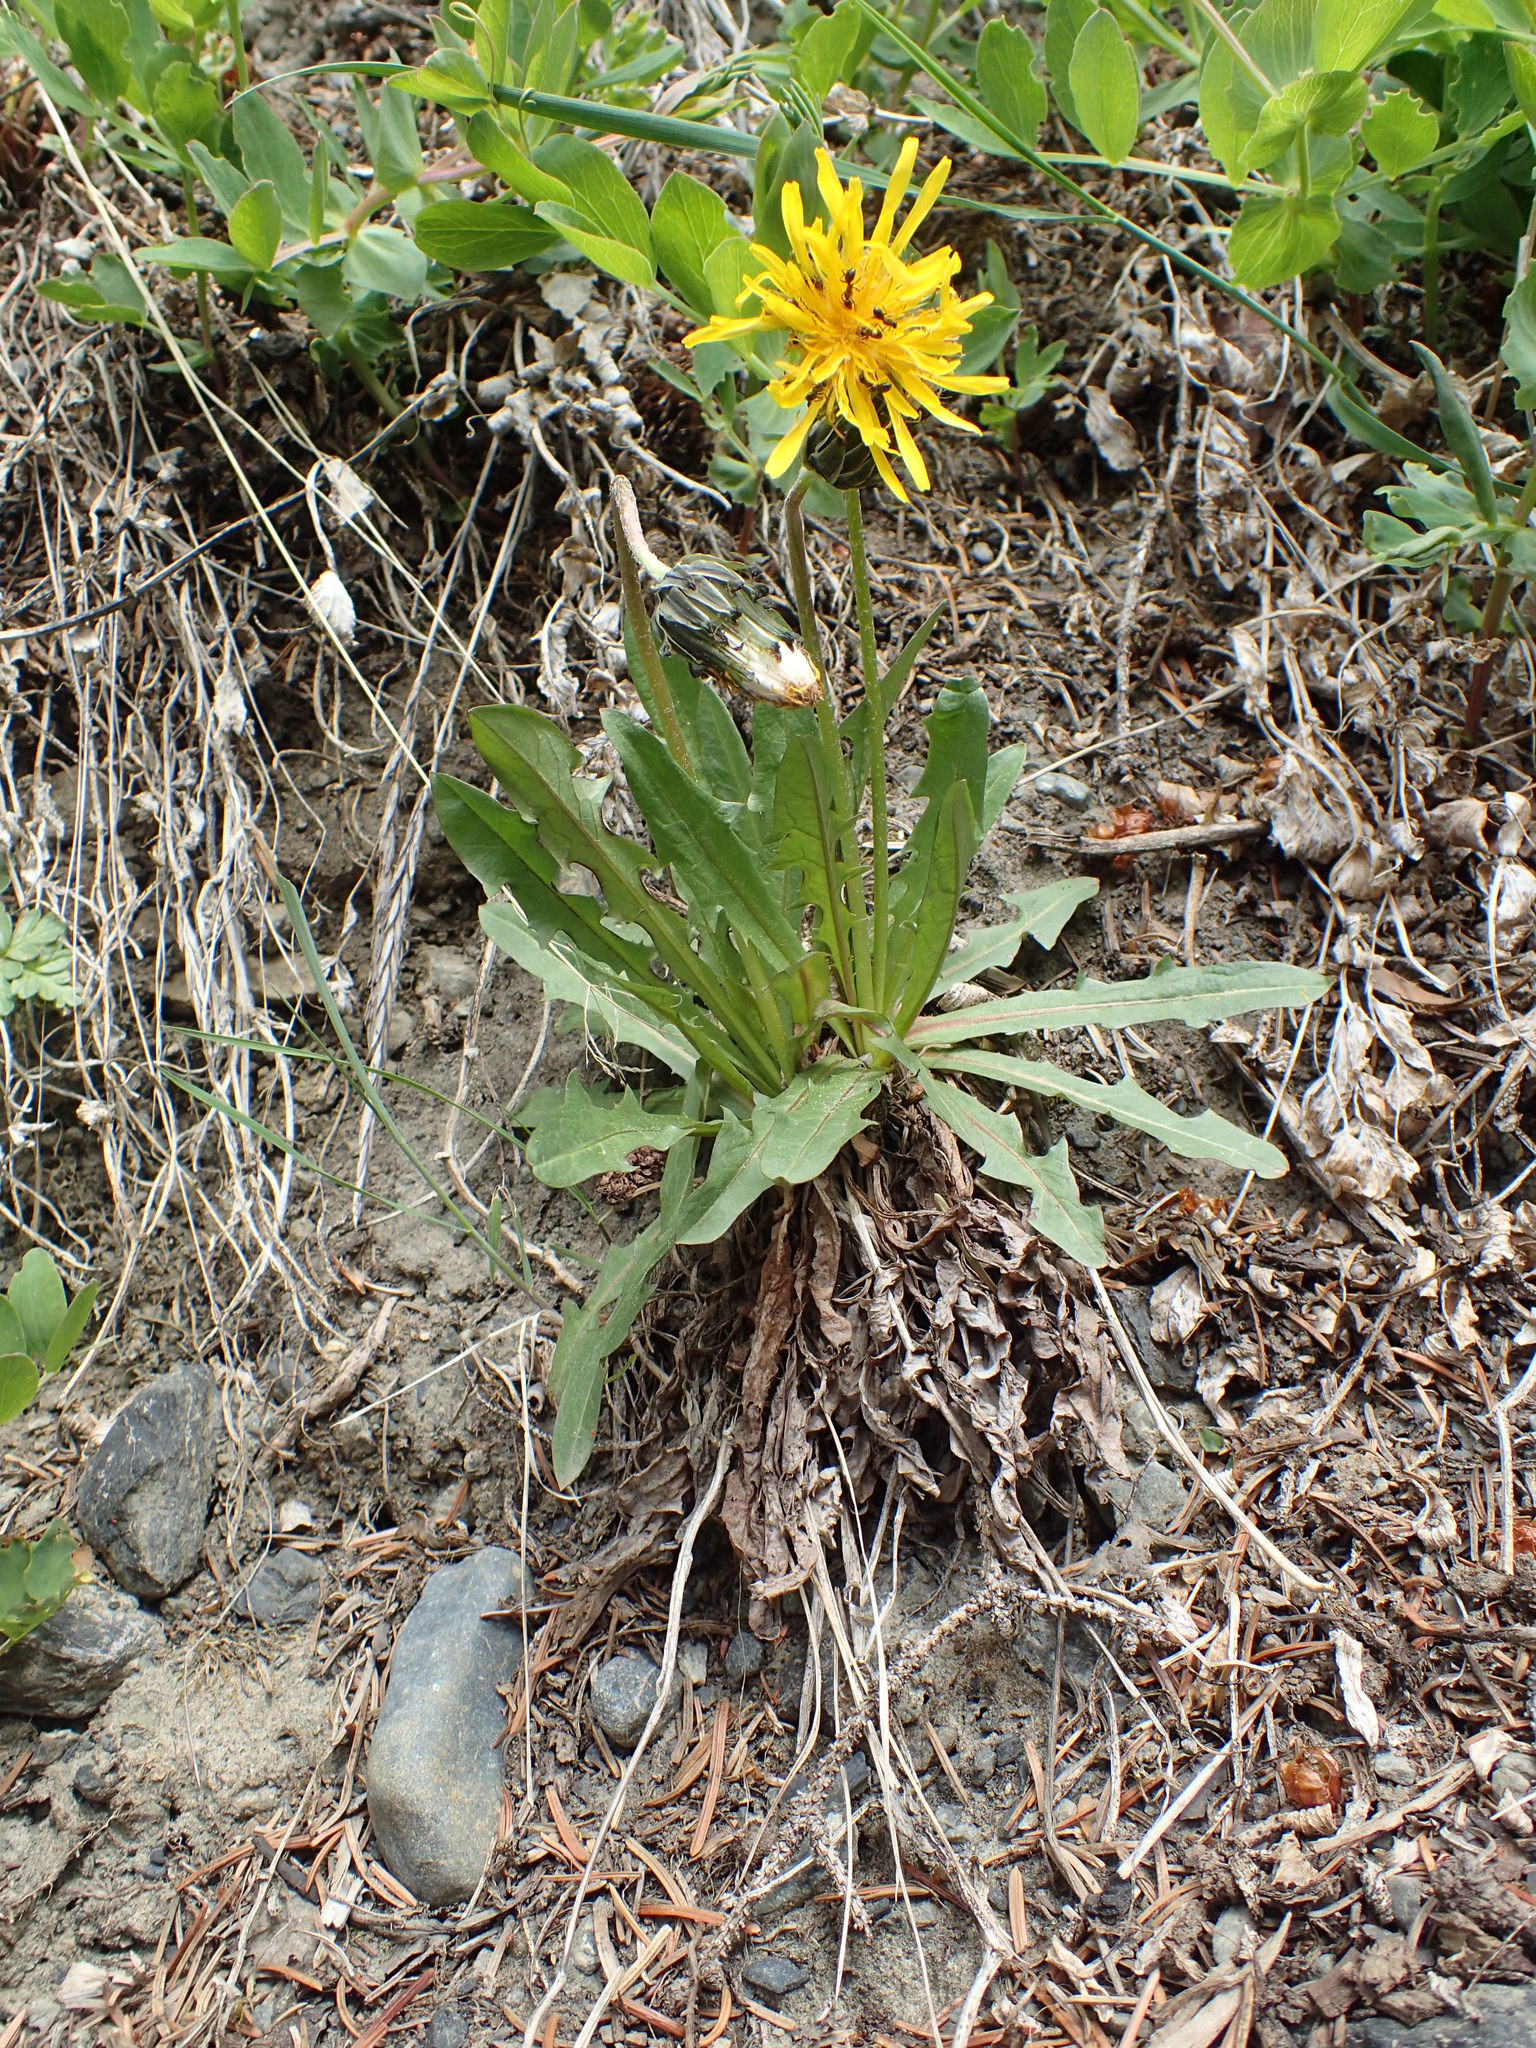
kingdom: Plantae
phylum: Tracheophyta
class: Magnoliopsida
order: Asterales
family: Asteraceae
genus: Taraxacum
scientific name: Taraxacum ceratophorum
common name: Horn-bearing dandelion
